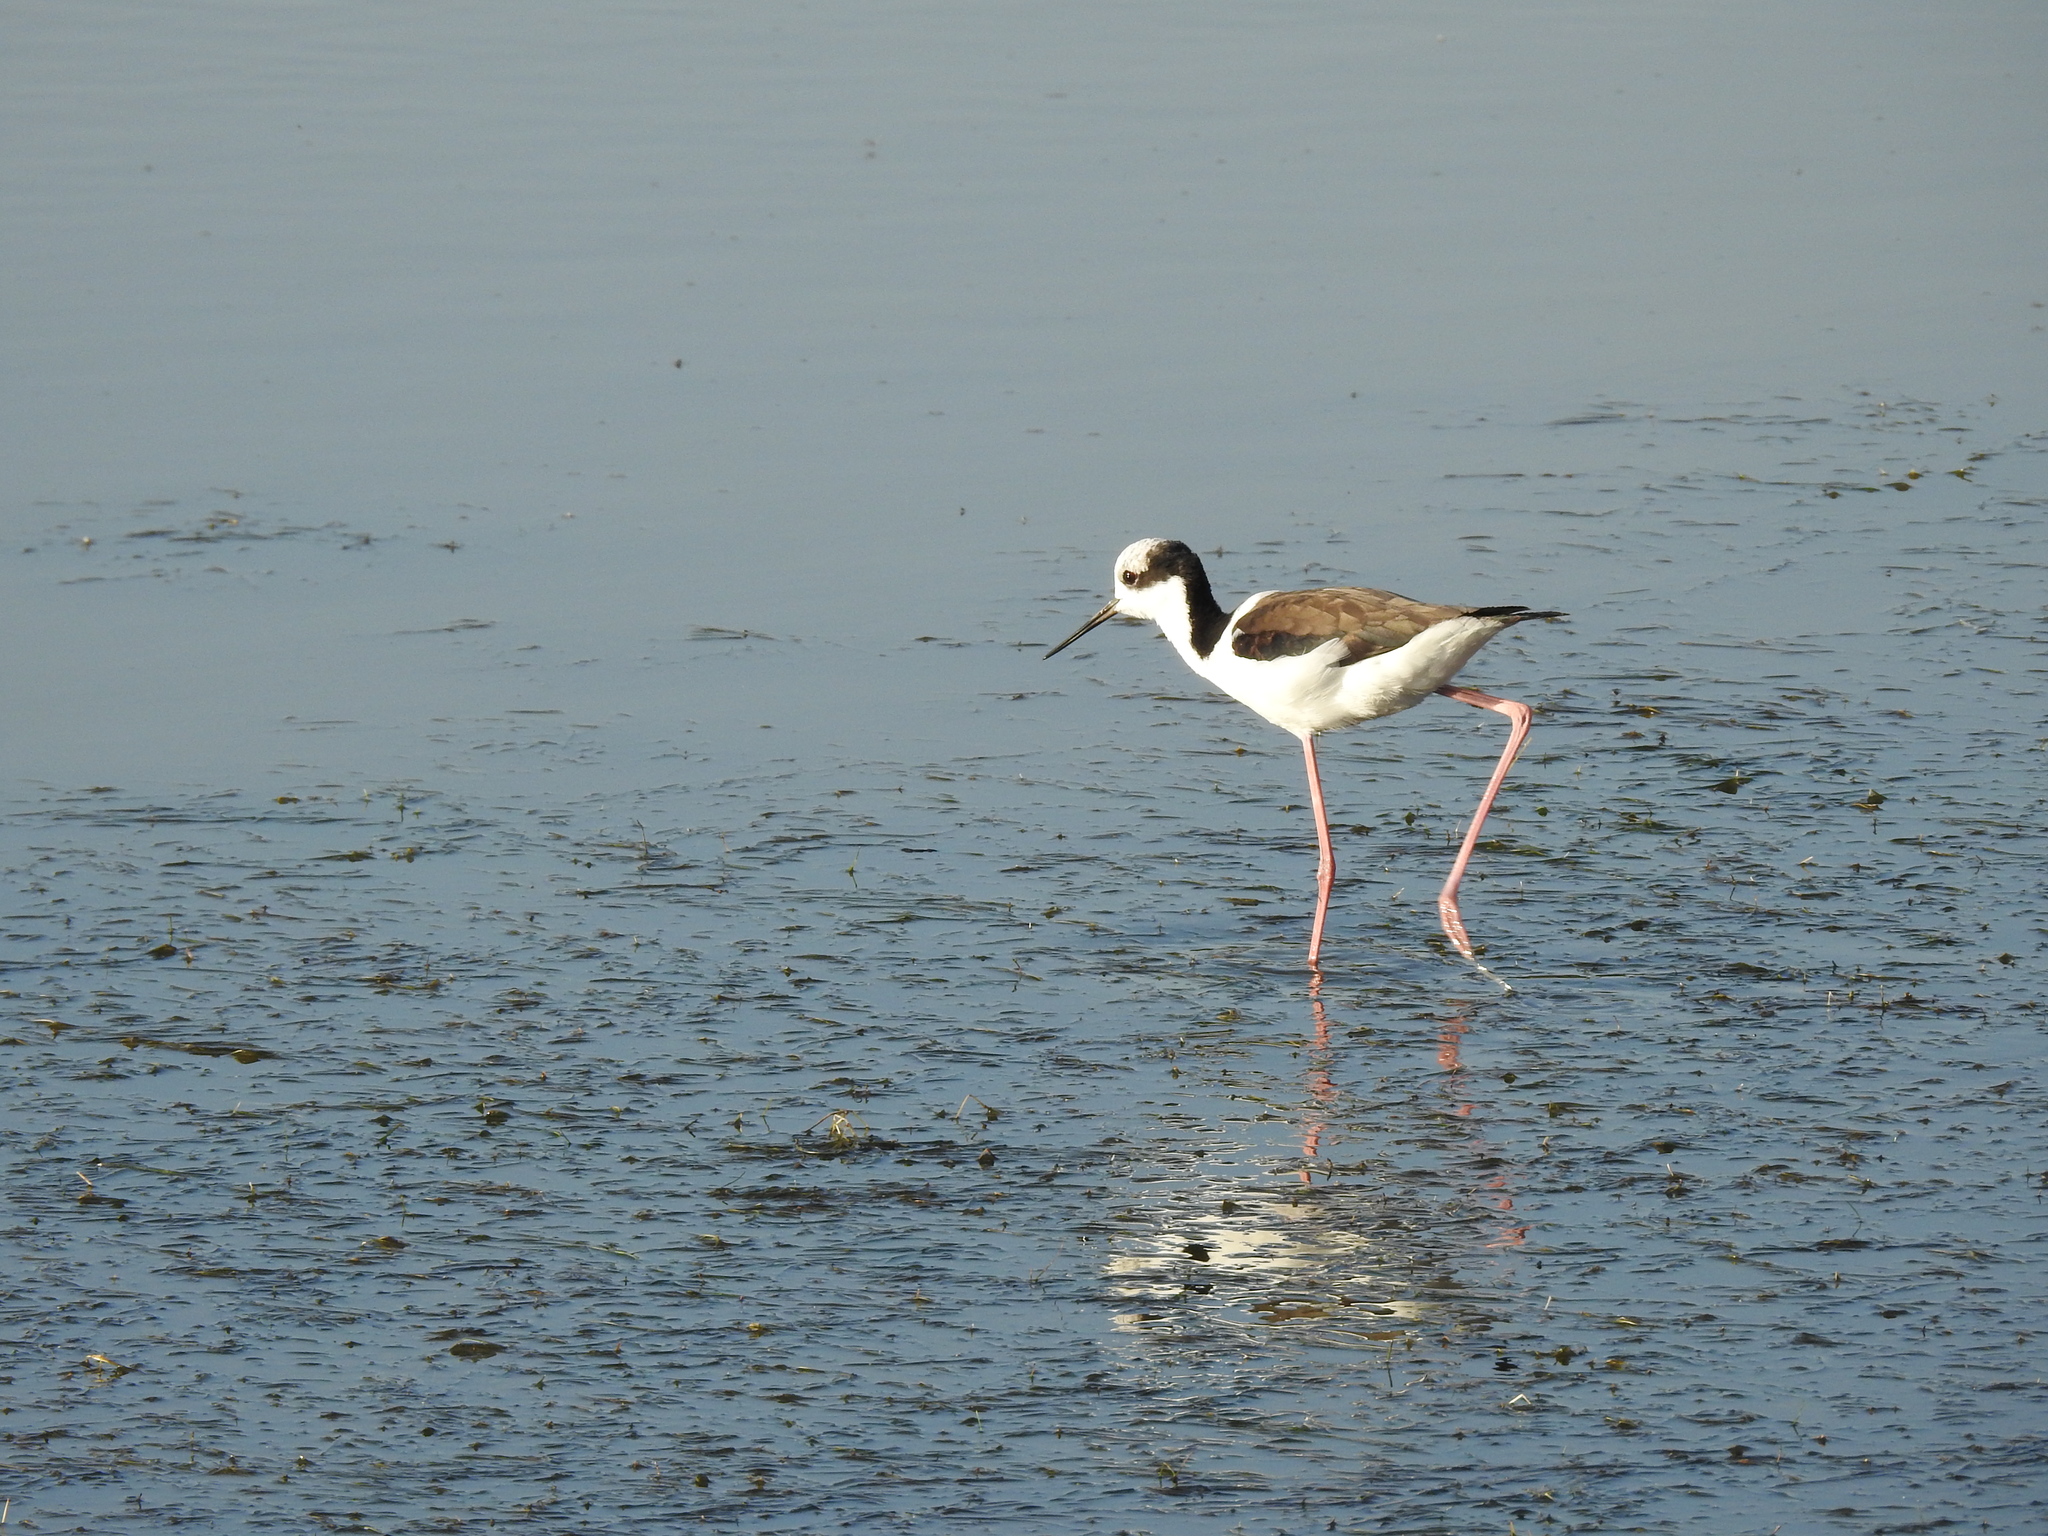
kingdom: Animalia
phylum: Chordata
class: Aves
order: Charadriiformes
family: Recurvirostridae
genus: Himantopus
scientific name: Himantopus mexicanus
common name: Black-necked stilt
